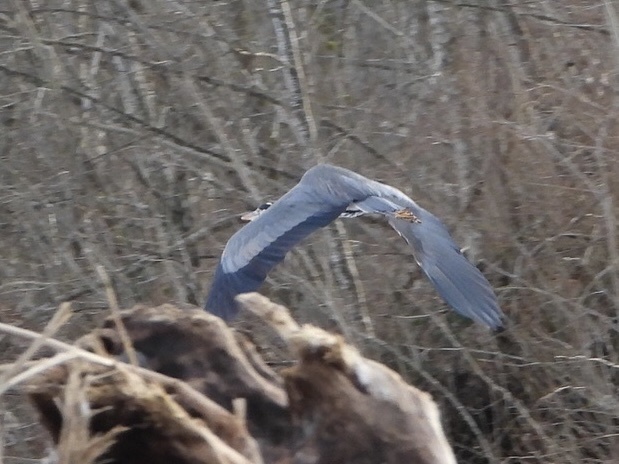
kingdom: Animalia
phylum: Chordata
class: Aves
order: Pelecaniformes
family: Ardeidae
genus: Ardea
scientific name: Ardea herodias
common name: Great blue heron
